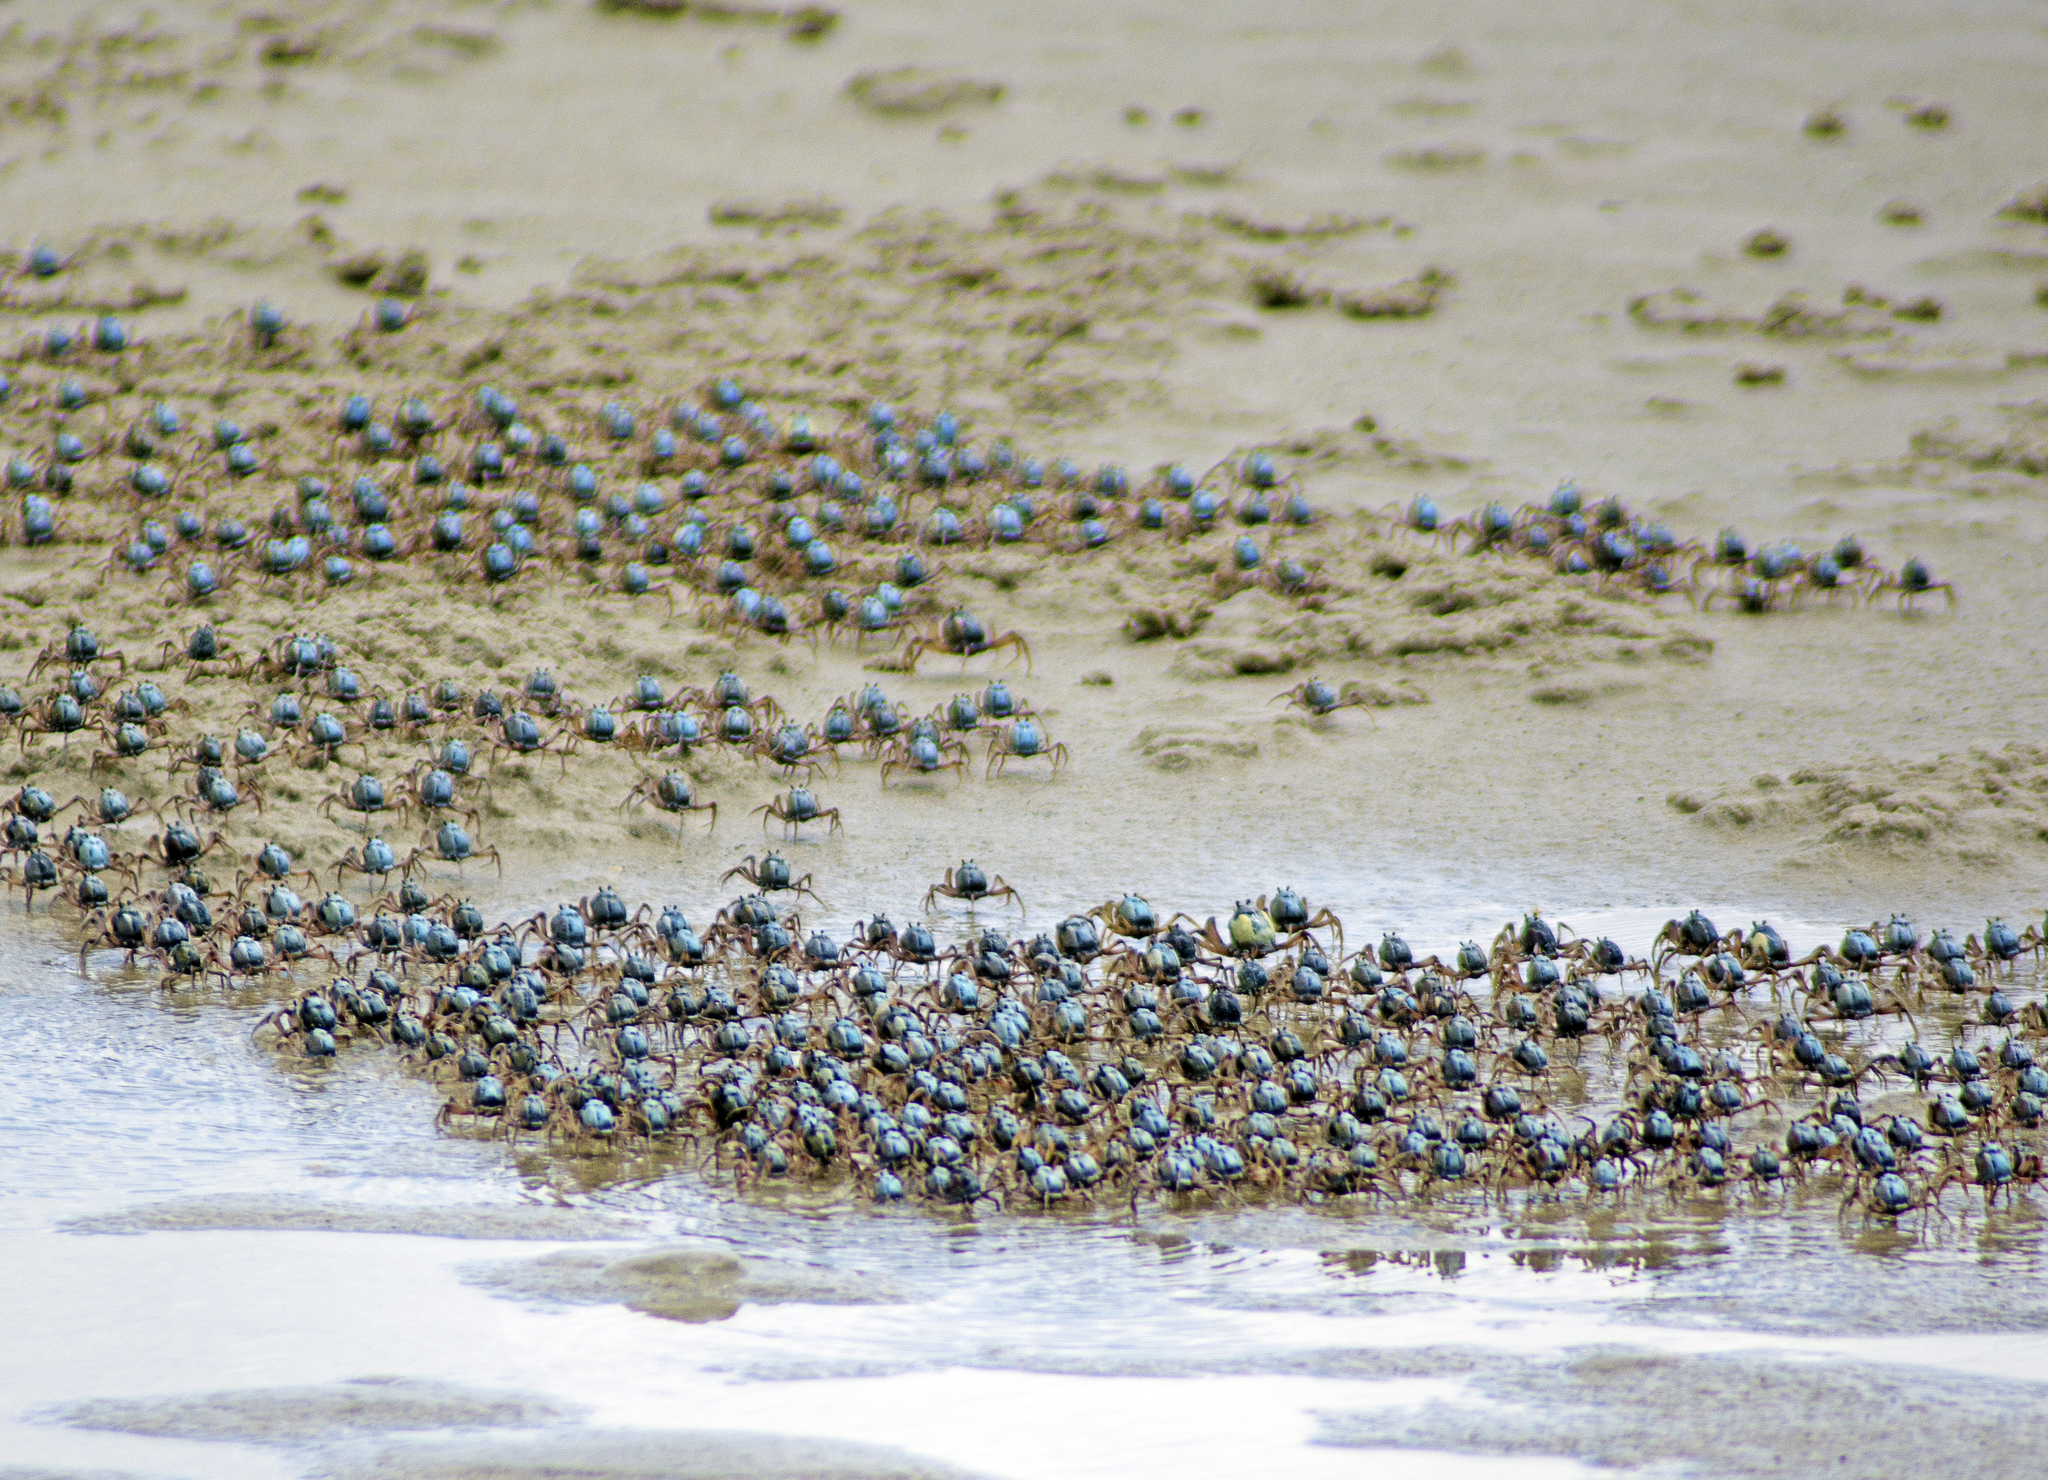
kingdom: Animalia
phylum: Arthropoda
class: Malacostraca
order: Decapoda
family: Mictyridae
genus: Mictyris
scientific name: Mictyris longicarpus
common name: Light-blue soldier crab
